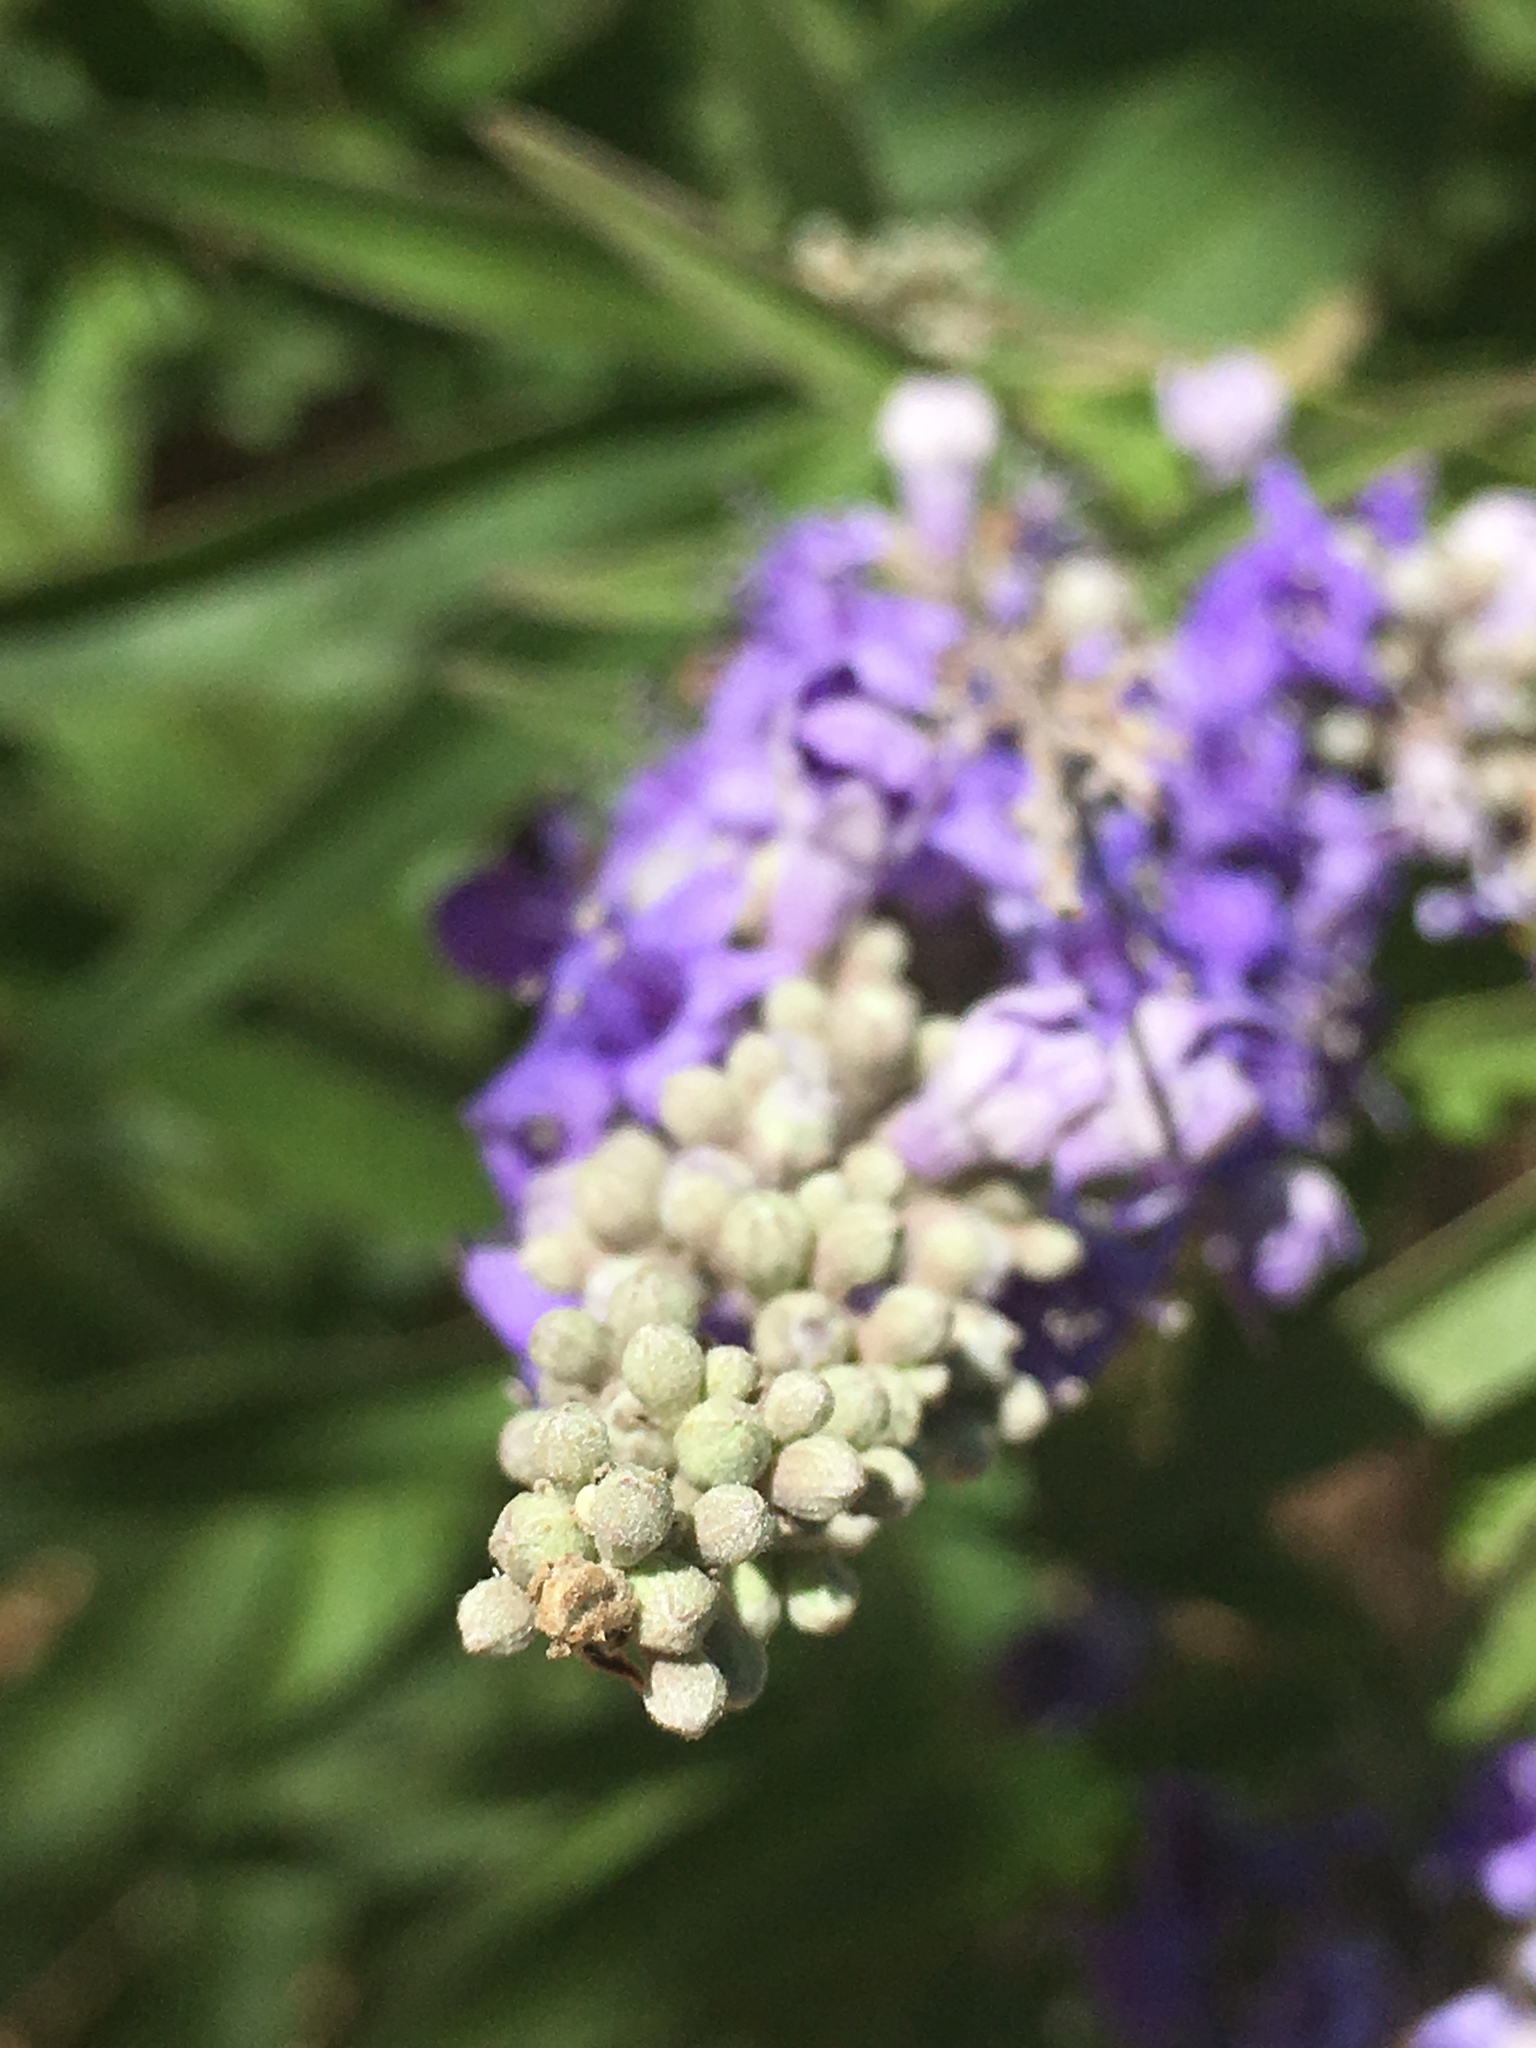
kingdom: Plantae
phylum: Tracheophyta
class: Magnoliopsida
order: Lamiales
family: Lamiaceae
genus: Vitex
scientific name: Vitex agnus-castus
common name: Chasteberry
